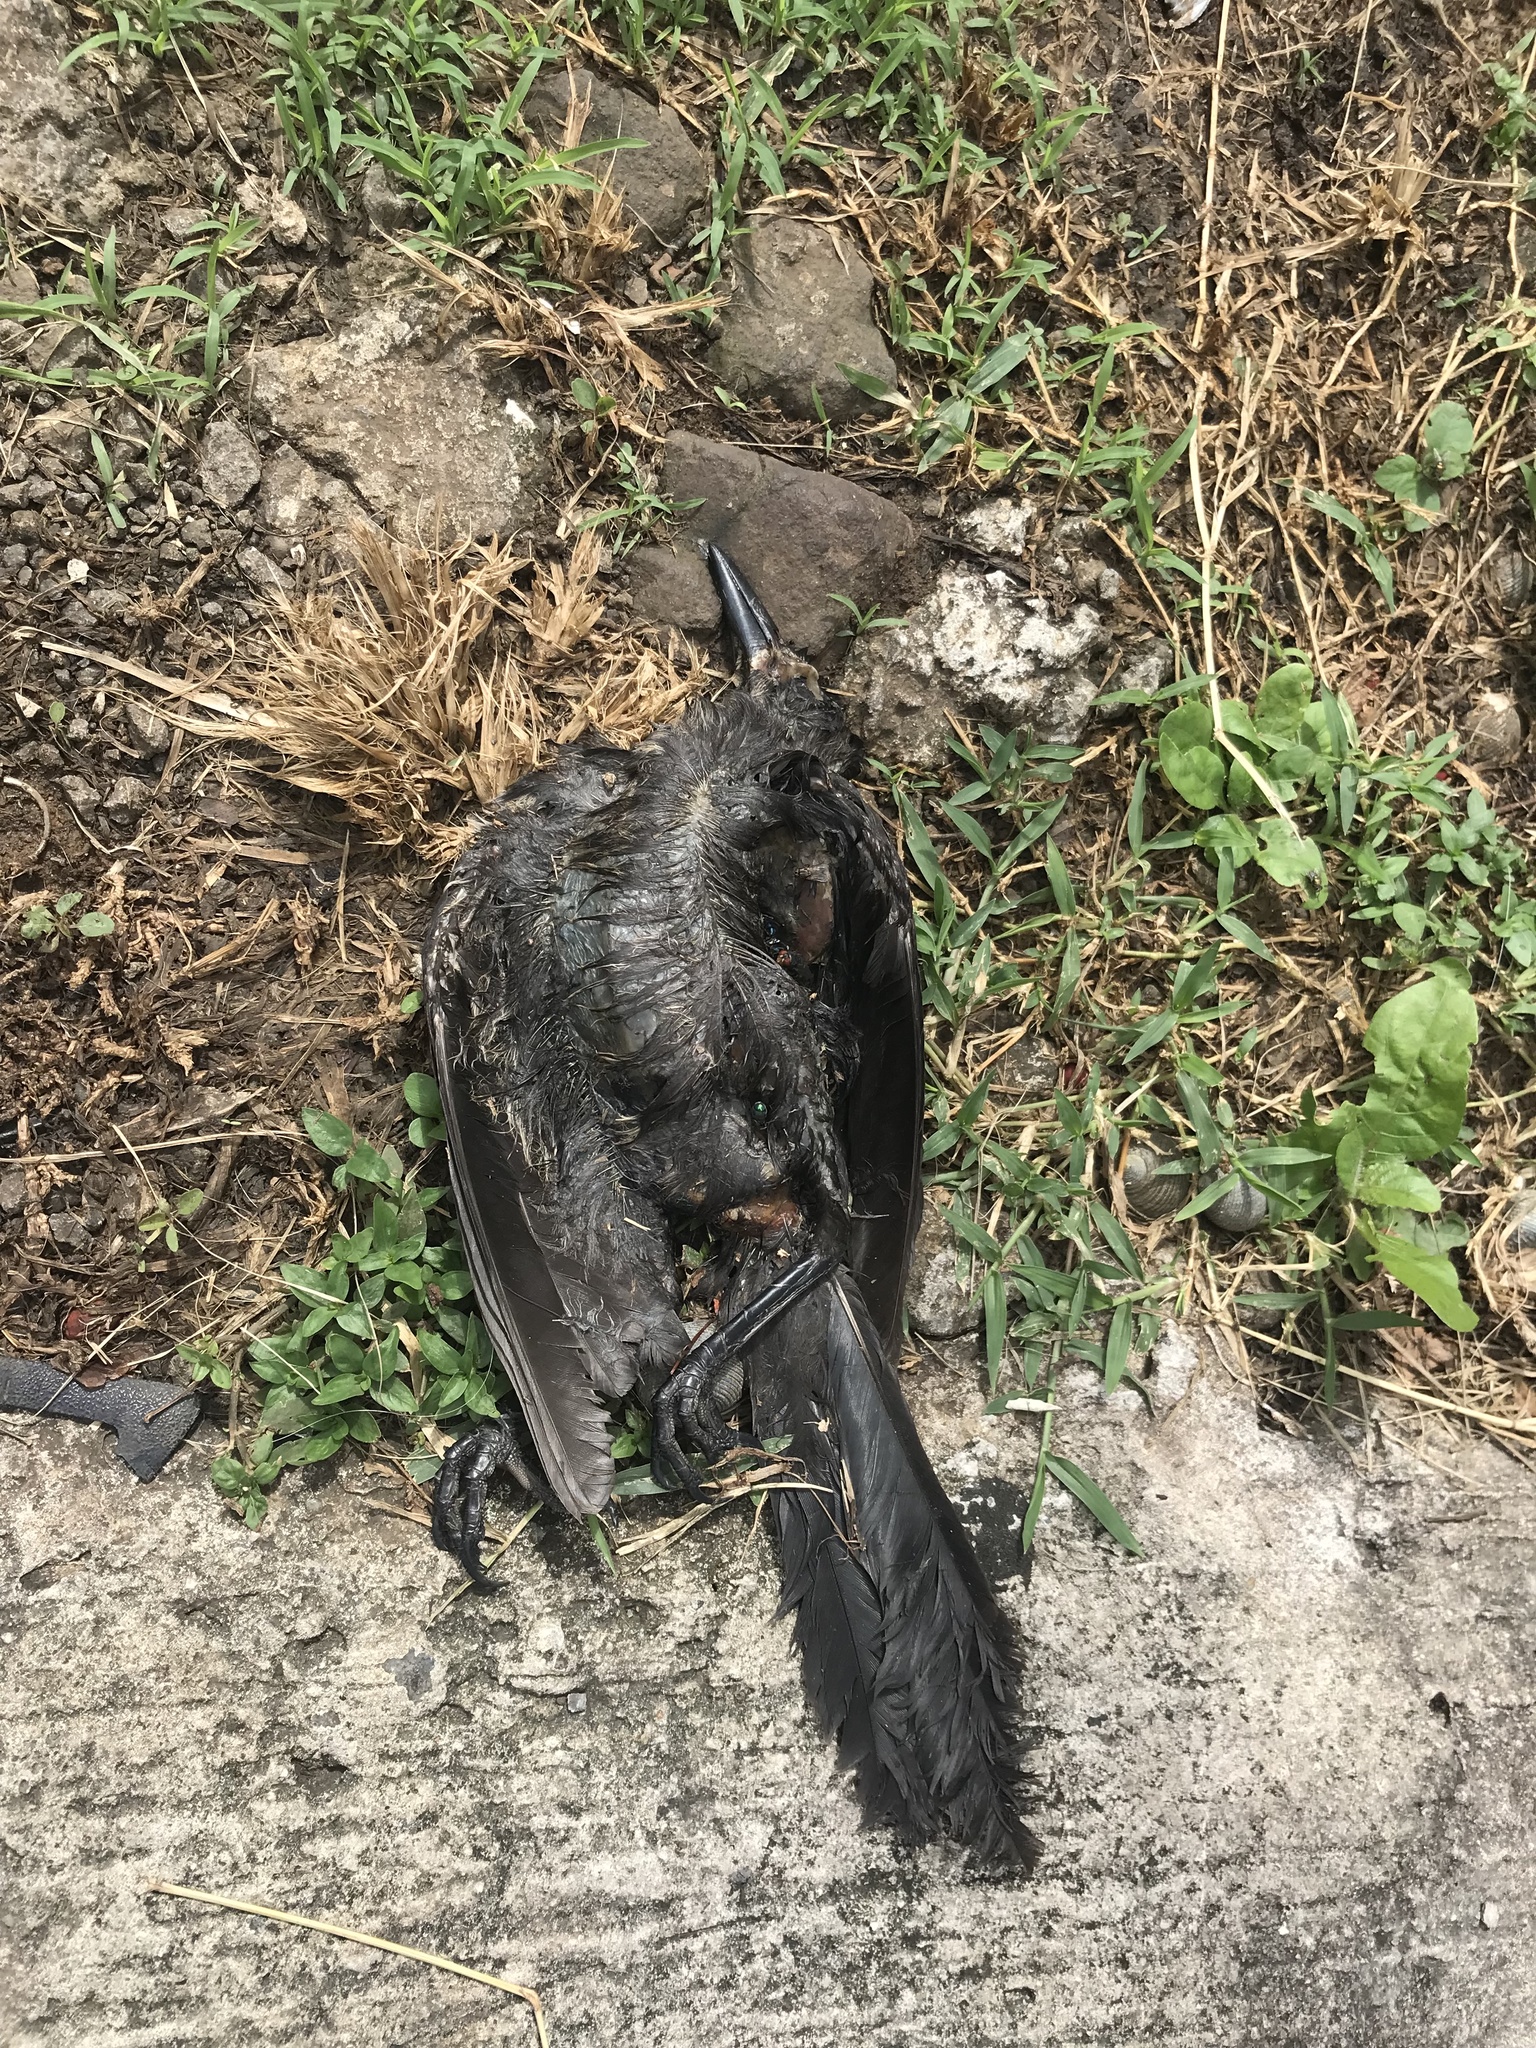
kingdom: Animalia
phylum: Chordata
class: Aves
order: Passeriformes
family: Icteridae
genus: Quiscalus
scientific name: Quiscalus mexicanus
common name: Great-tailed grackle
